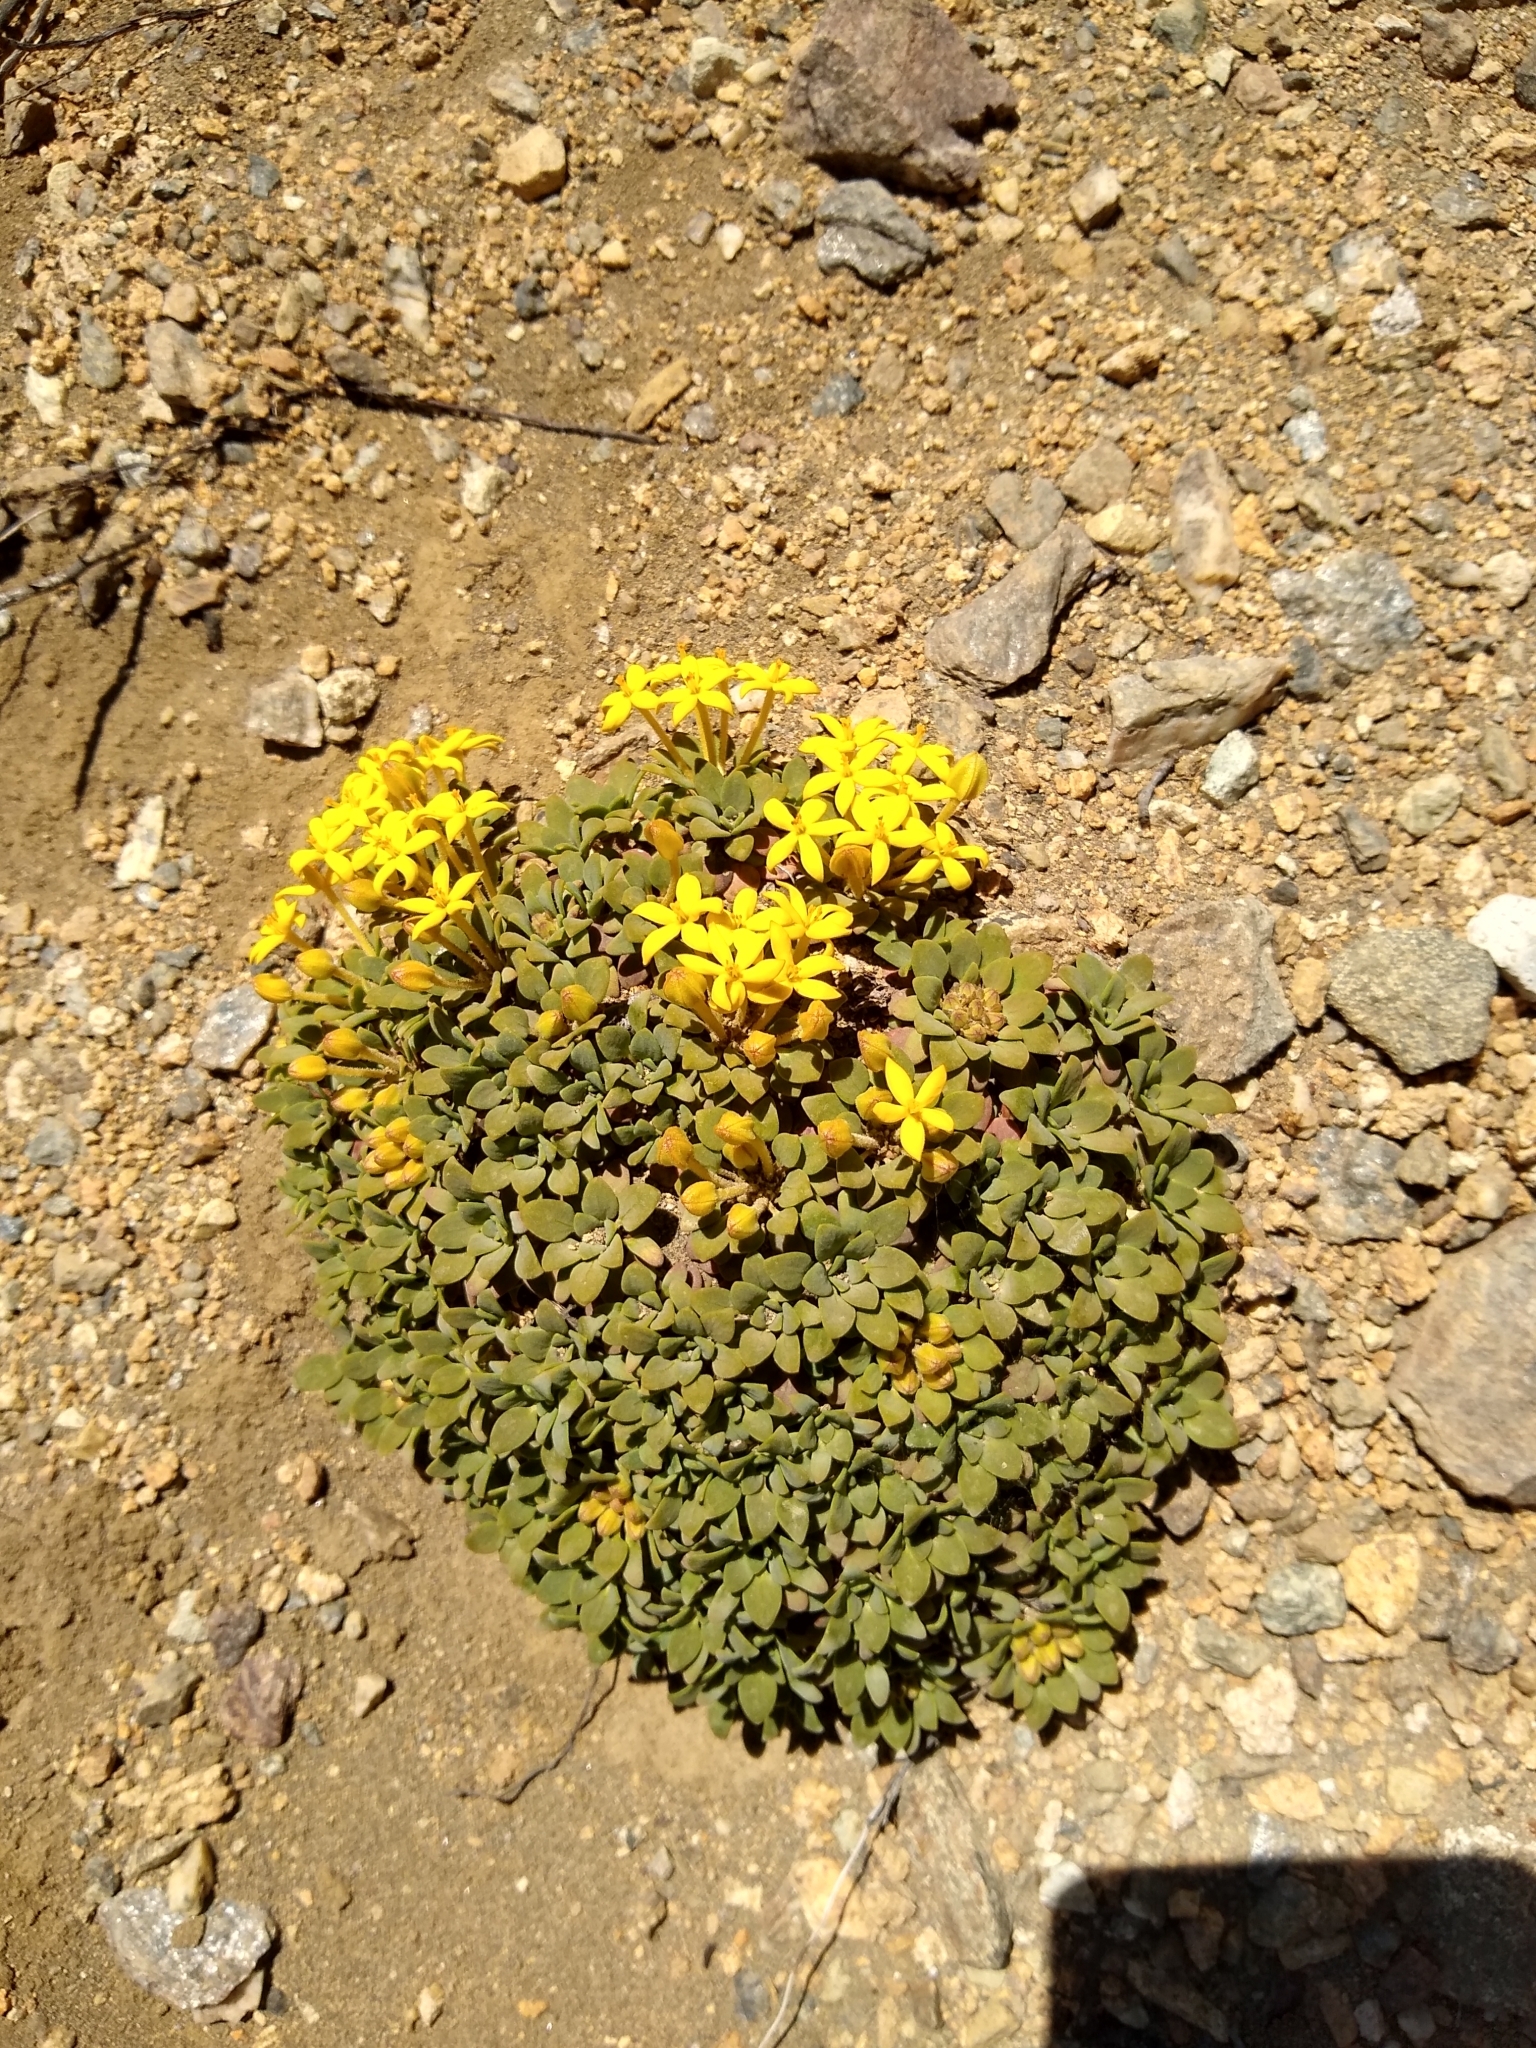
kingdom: Plantae
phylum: Tracheophyta
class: Magnoliopsida
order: Gentianales
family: Rubiaceae
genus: Oreopolus
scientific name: Oreopolus glacialis
